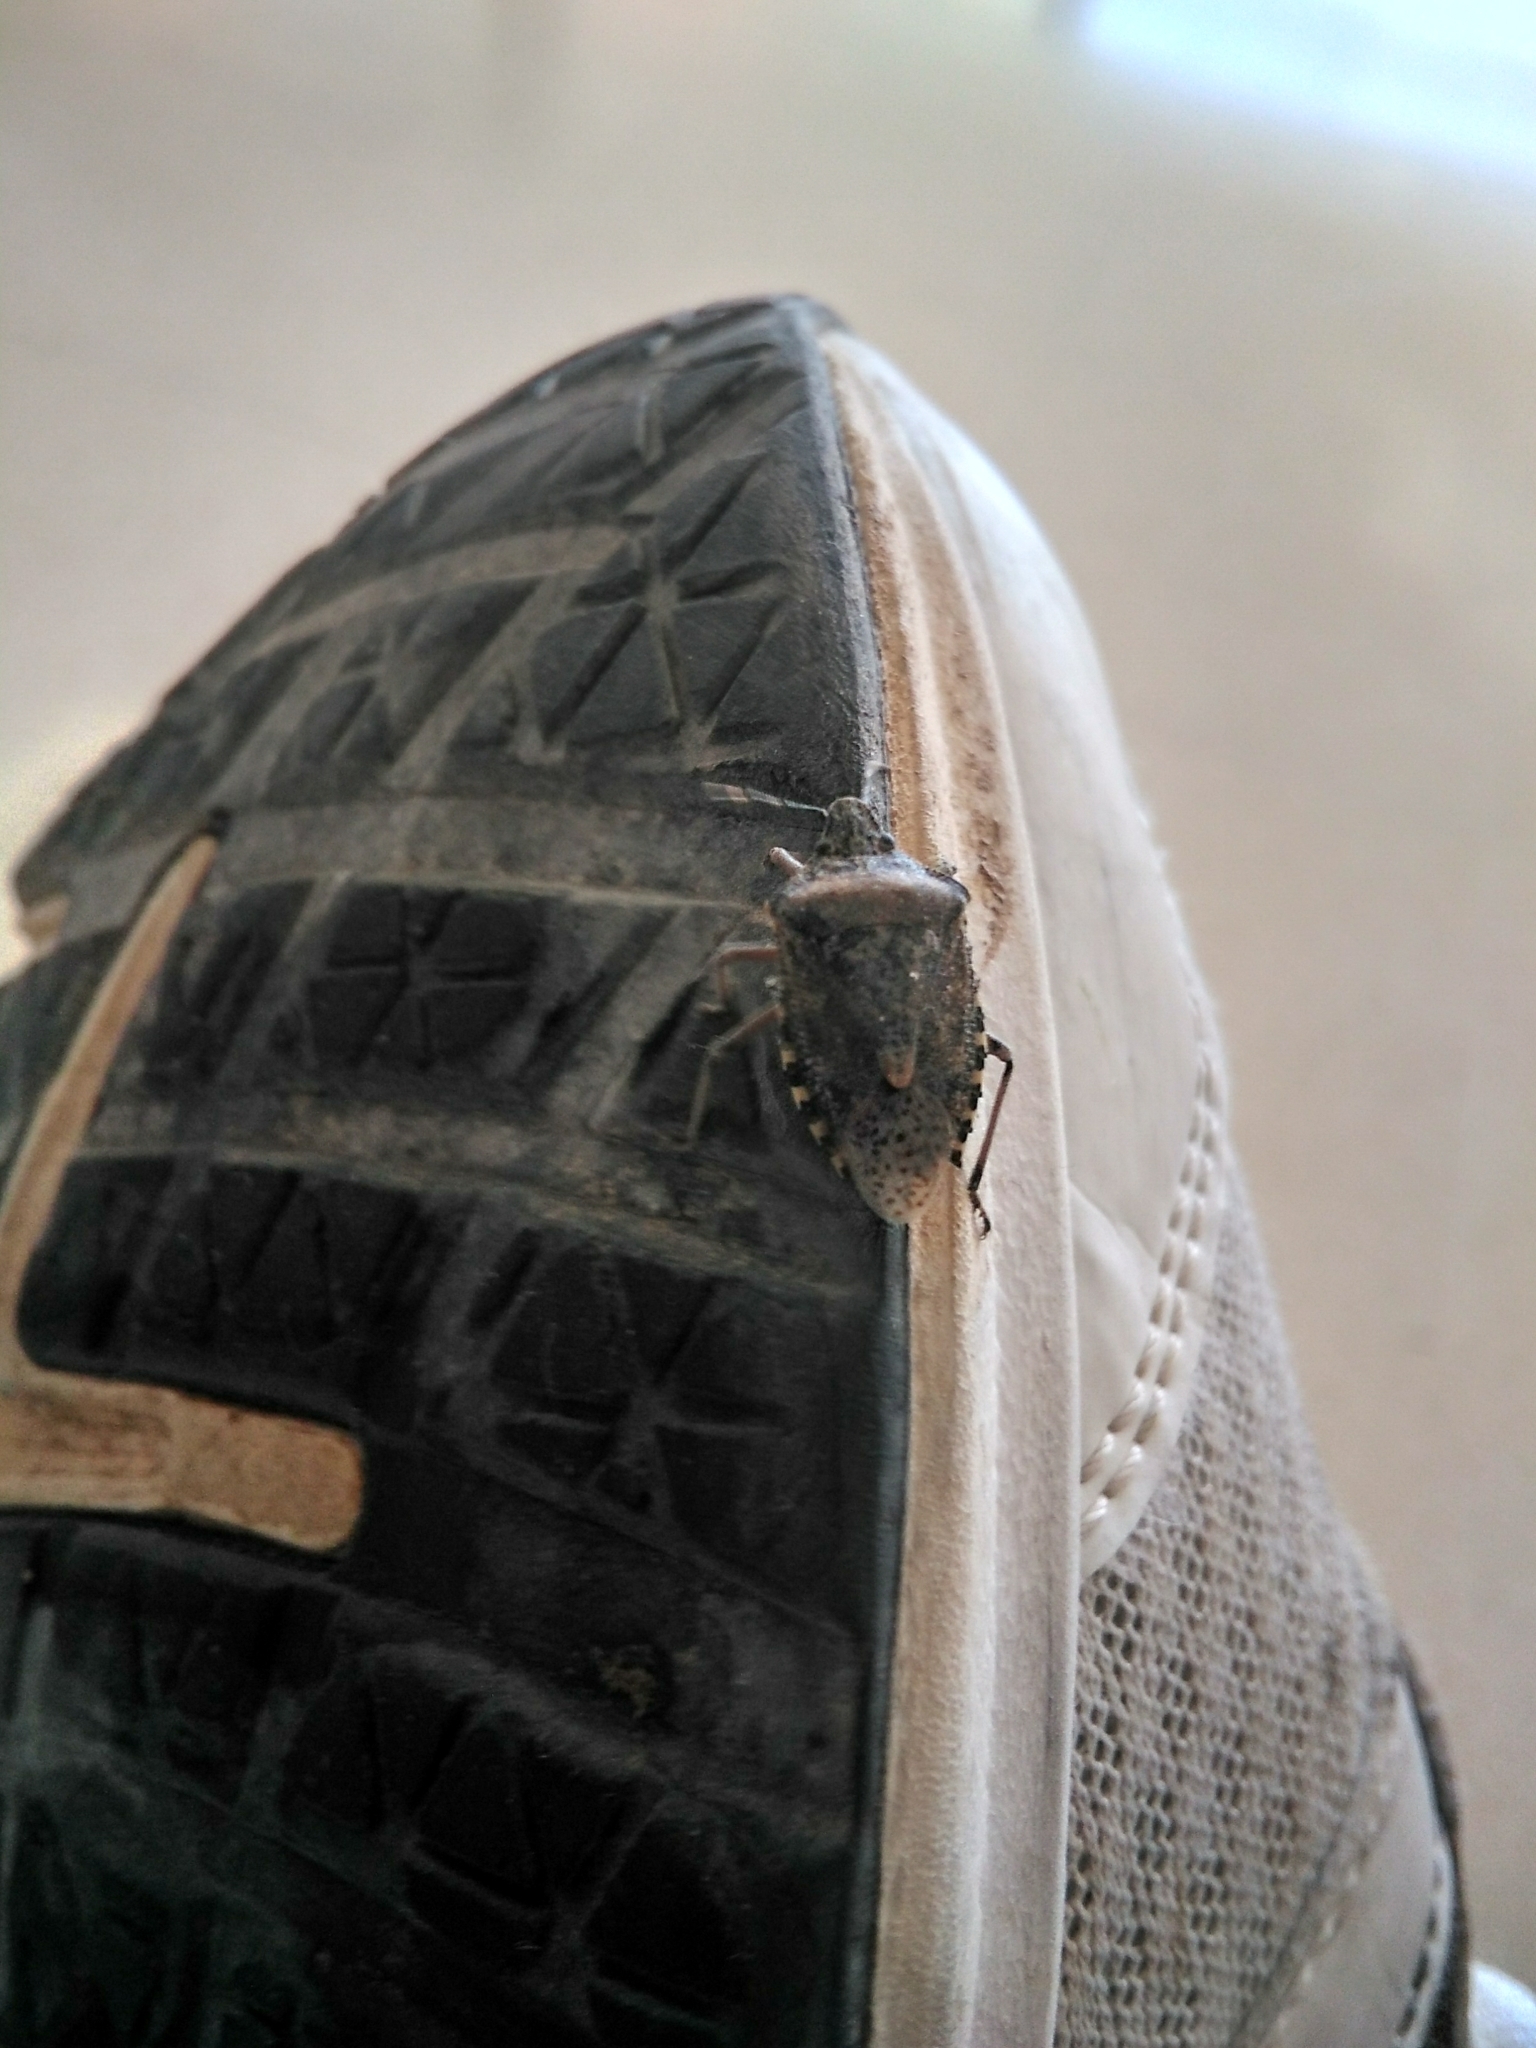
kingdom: Animalia
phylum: Arthropoda
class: Insecta
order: Hemiptera
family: Pentatomidae
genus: Rhaphigaster
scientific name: Rhaphigaster nebulosa
